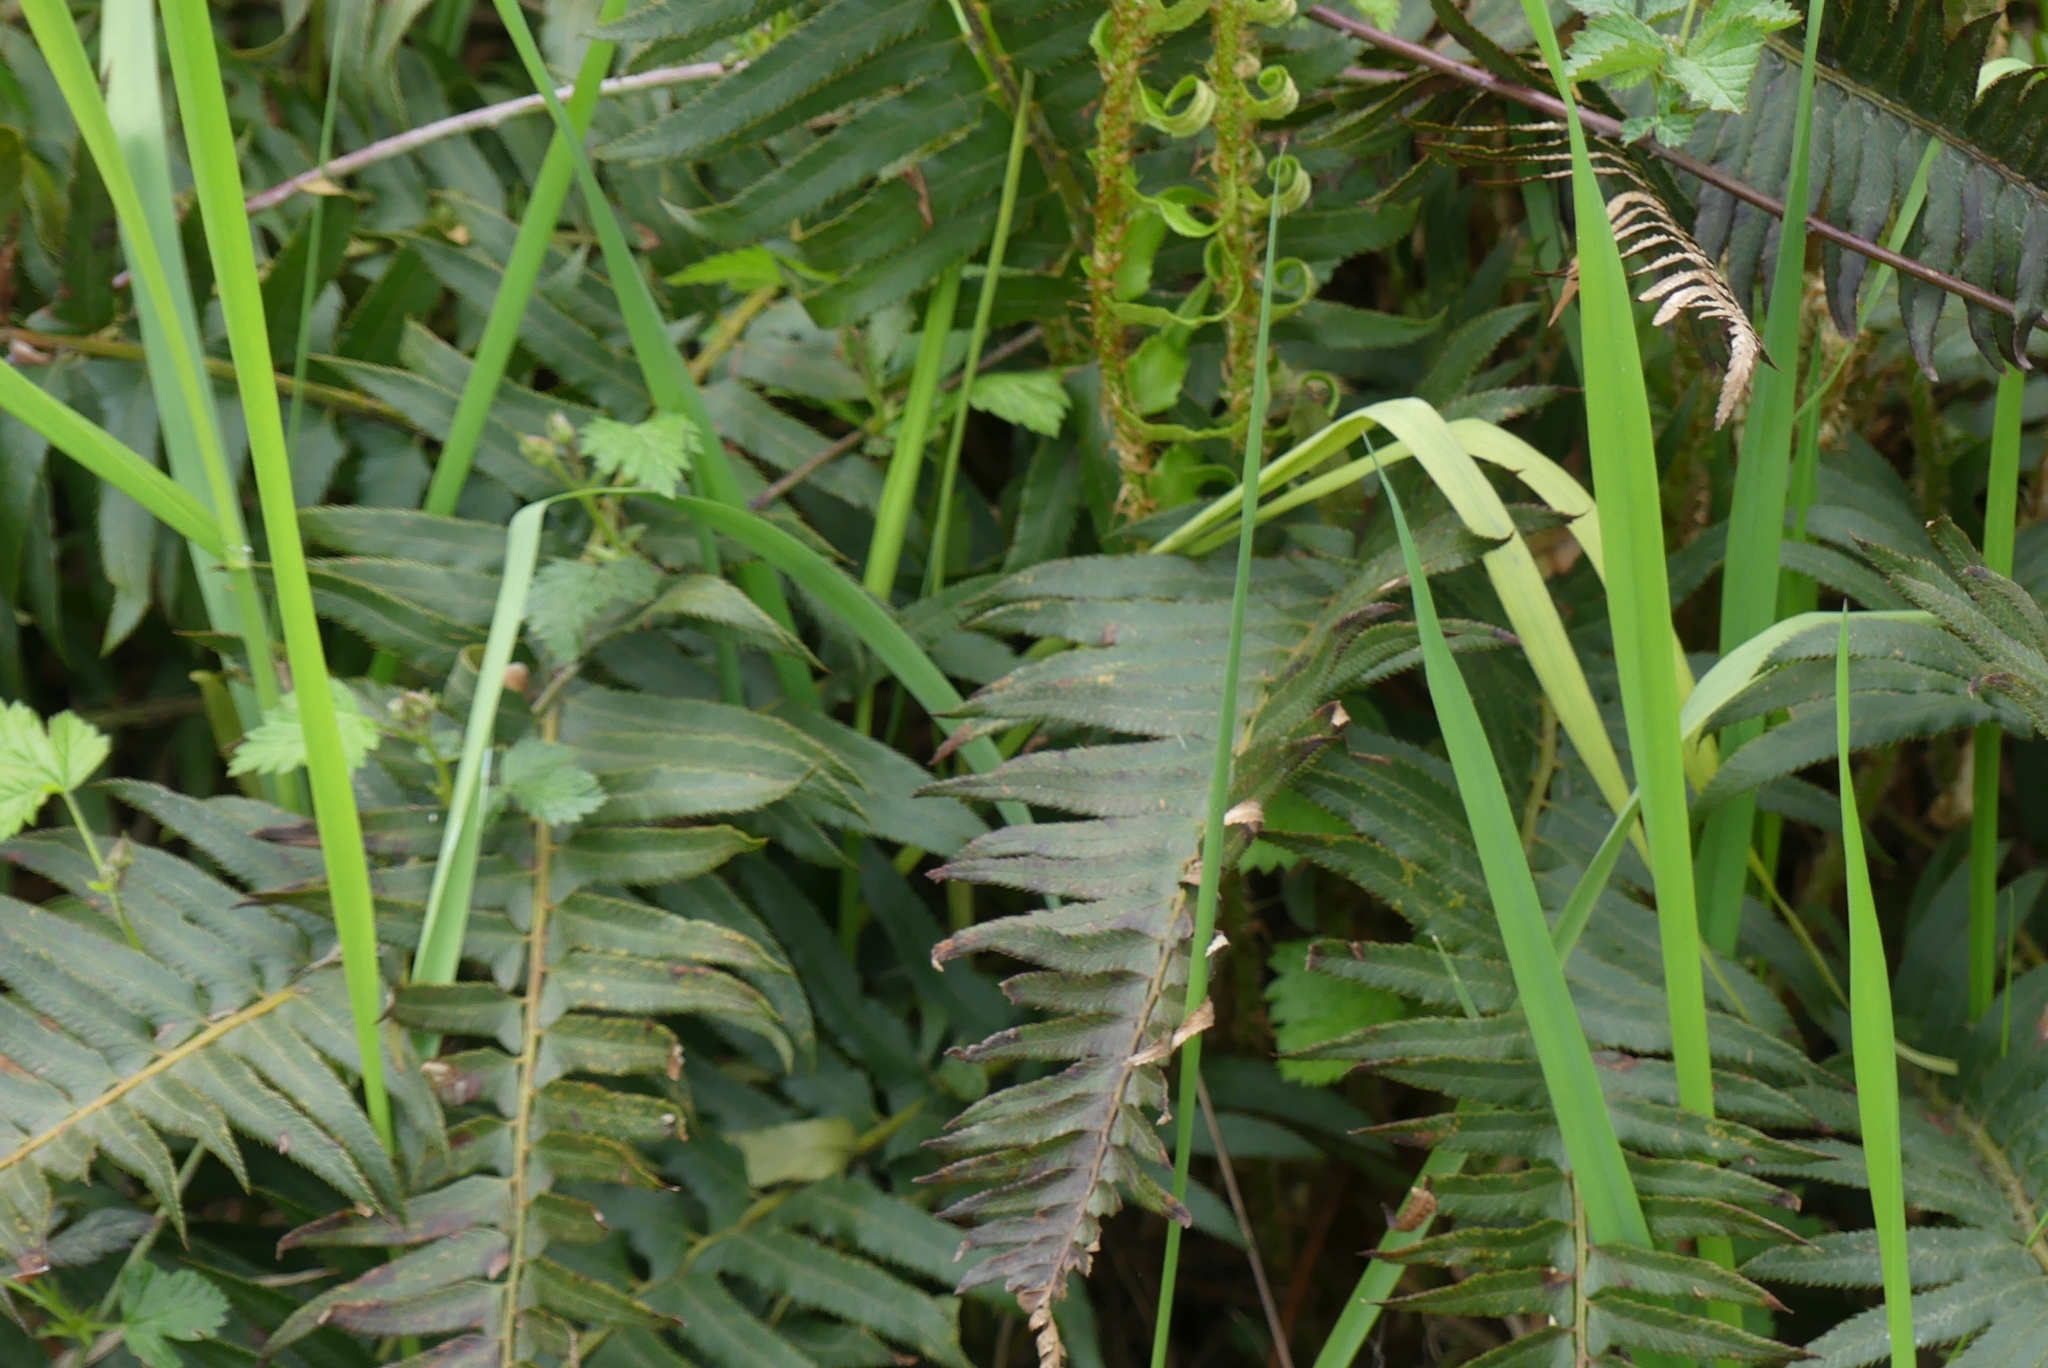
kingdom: Plantae
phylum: Tracheophyta
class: Polypodiopsida
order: Polypodiales
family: Dryopteridaceae
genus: Polystichum
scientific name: Polystichum munitum
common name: Western sword-fern
